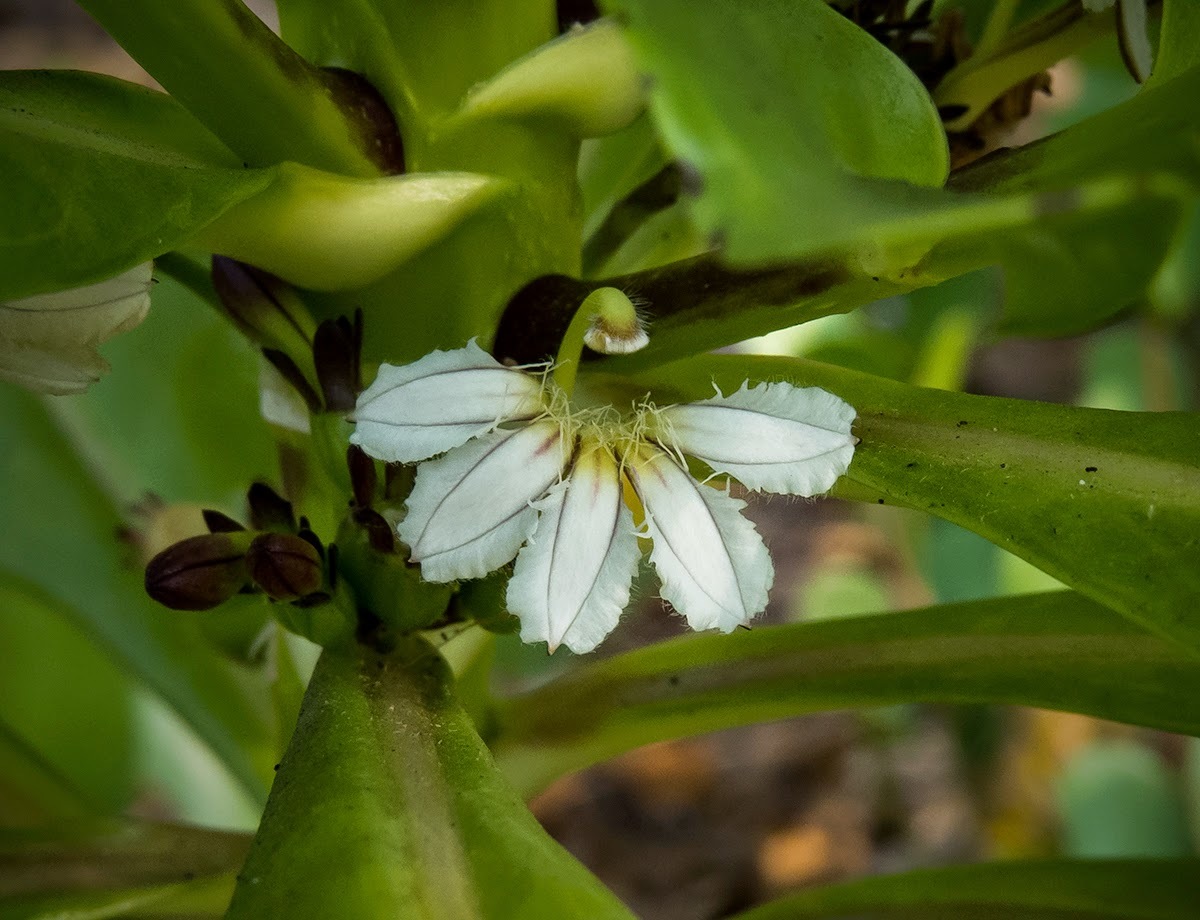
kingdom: Plantae
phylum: Tracheophyta
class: Magnoliopsida
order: Asterales
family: Goodeniaceae
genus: Scaevola
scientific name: Scaevola taccada
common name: Sea lettucetree
